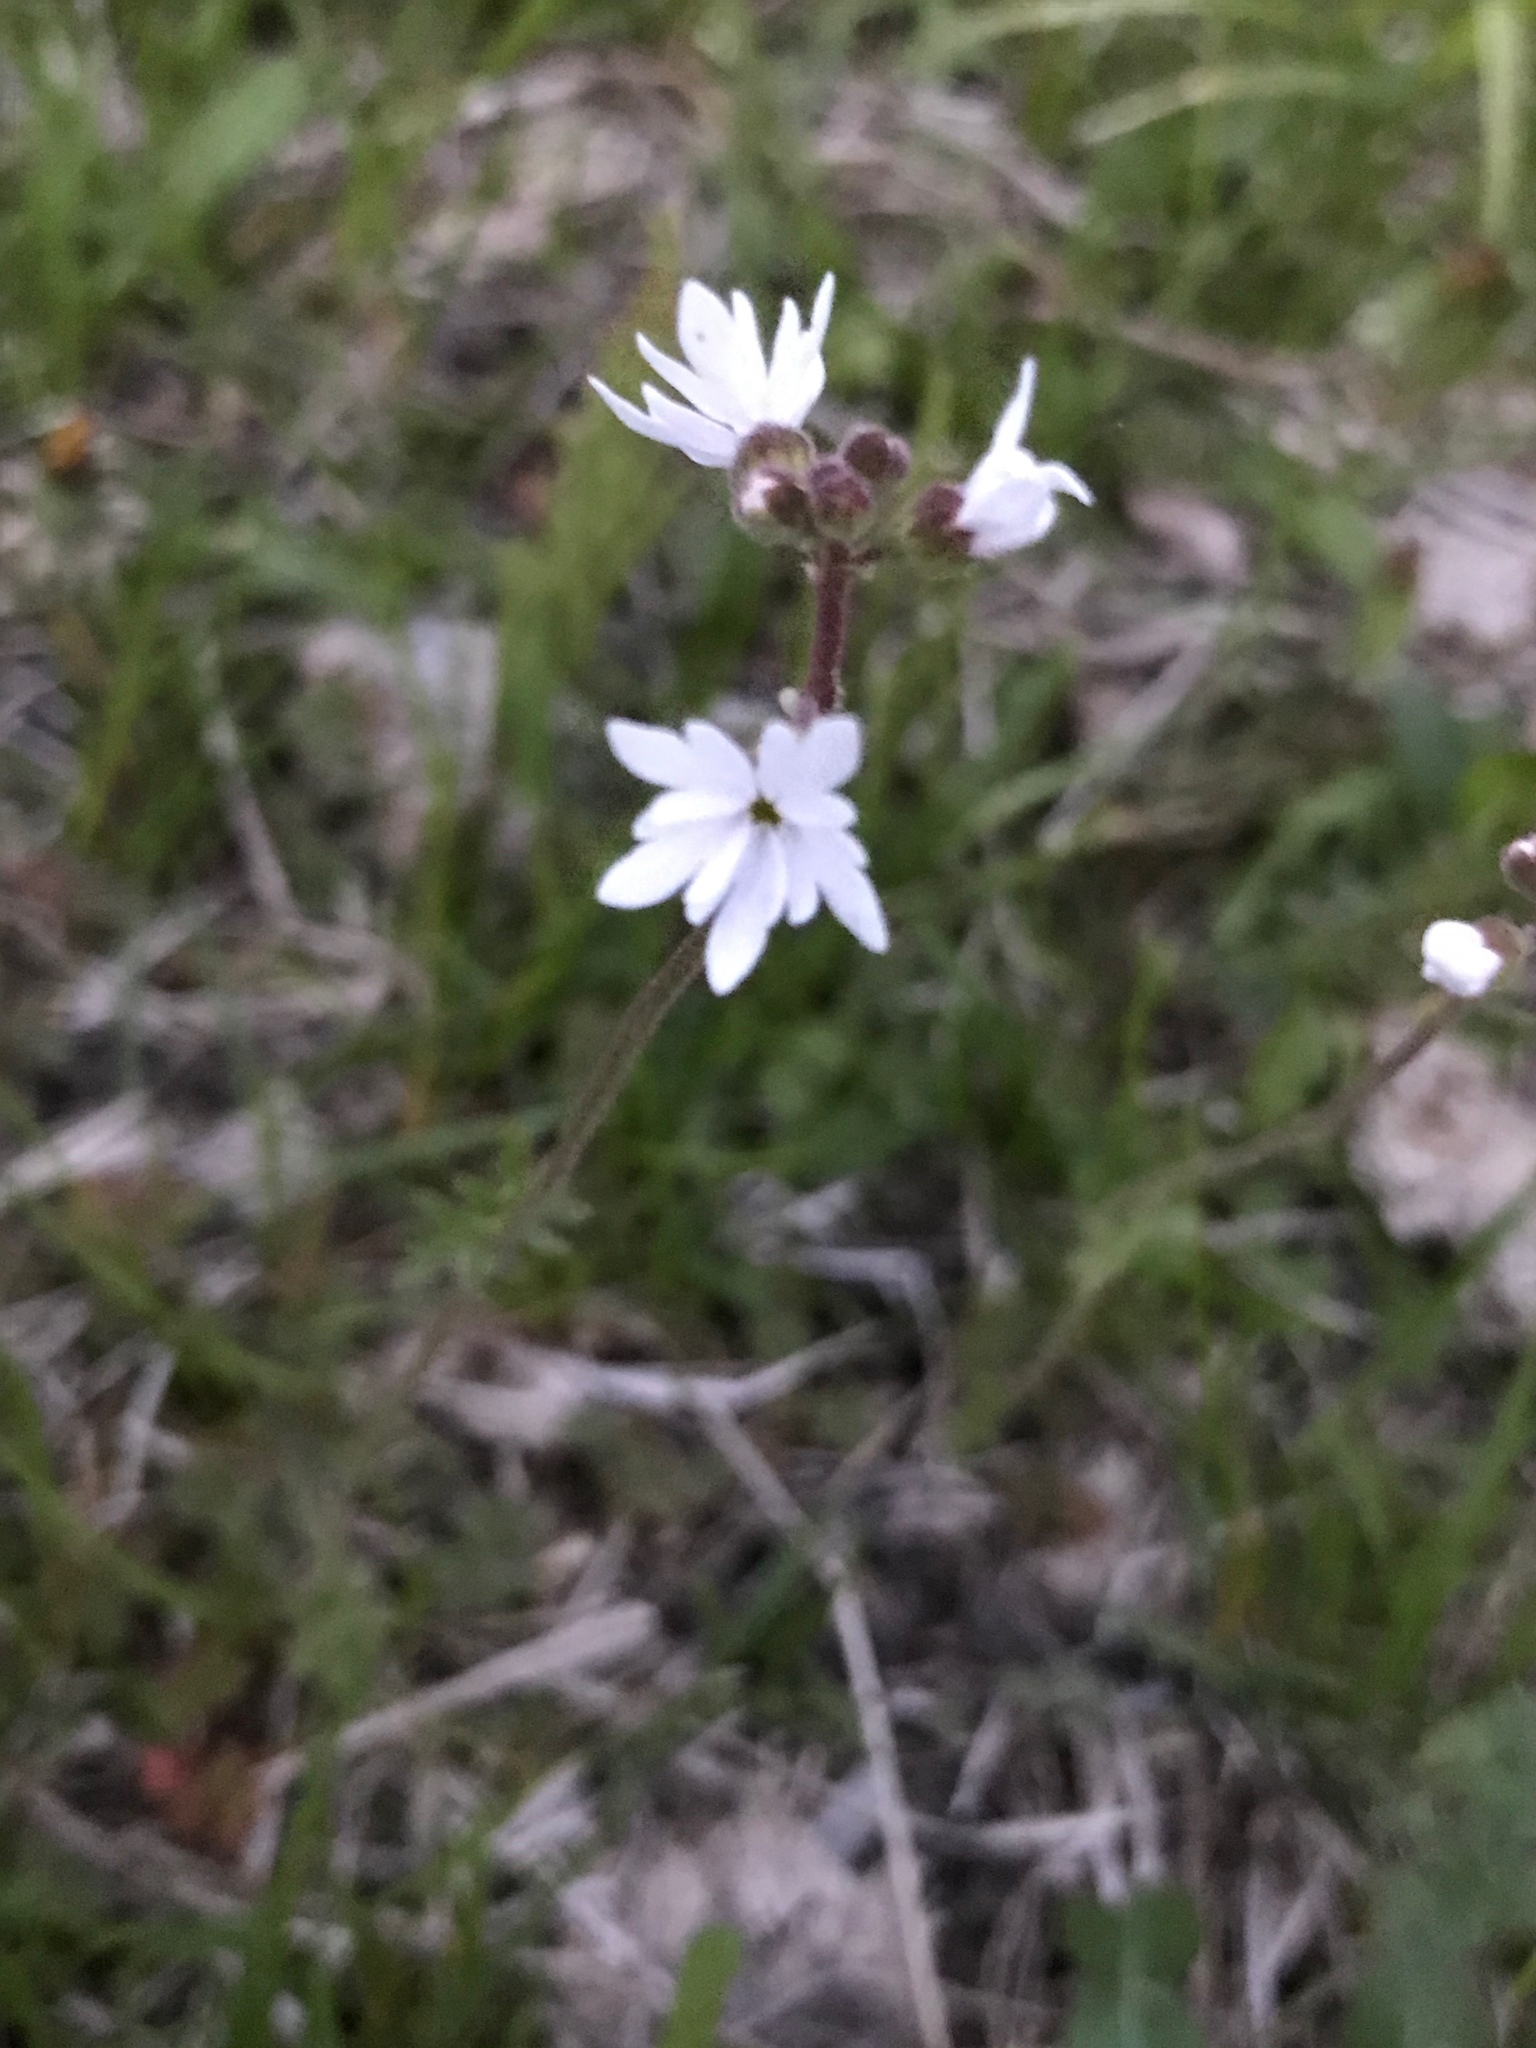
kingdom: Plantae
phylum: Tracheophyta
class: Magnoliopsida
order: Saxifragales
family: Saxifragaceae
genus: Lithophragma
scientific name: Lithophragma parviflorum
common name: Small-flowered fringe-cup
